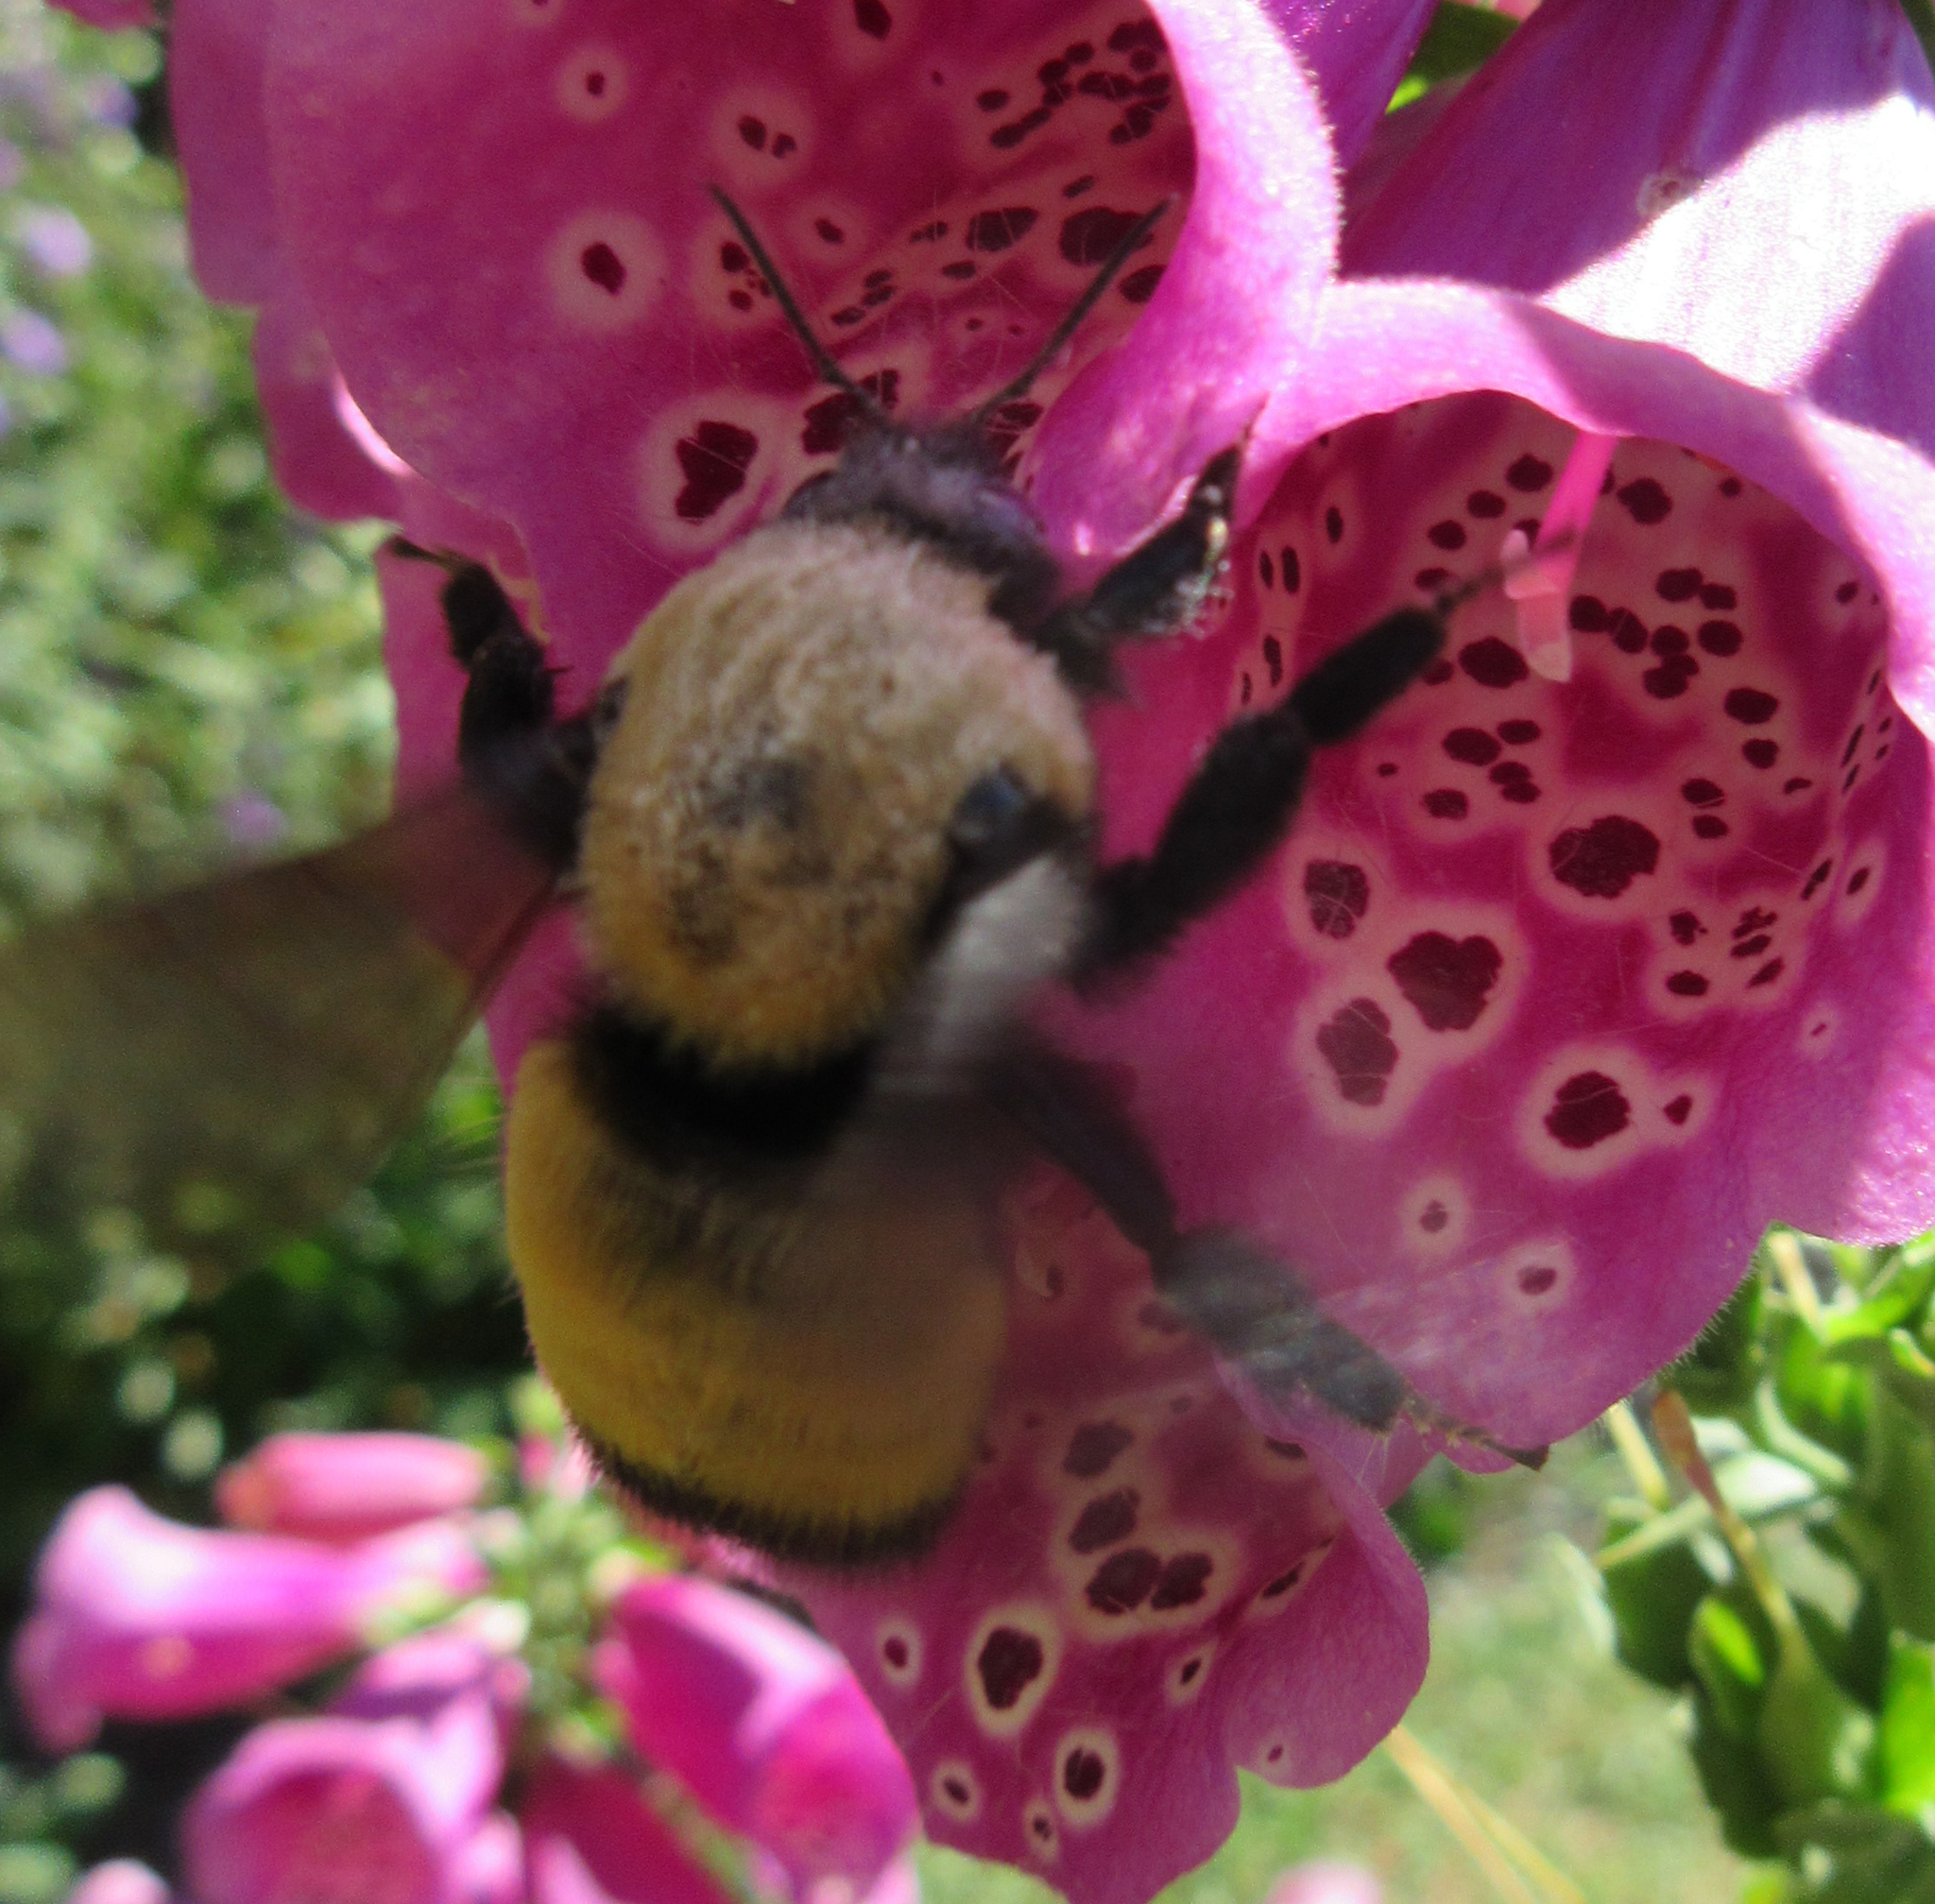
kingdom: Animalia
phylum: Arthropoda
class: Insecta
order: Hymenoptera
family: Apidae
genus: Bombus
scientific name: Bombus nevadensis
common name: Nevada bumble bee
